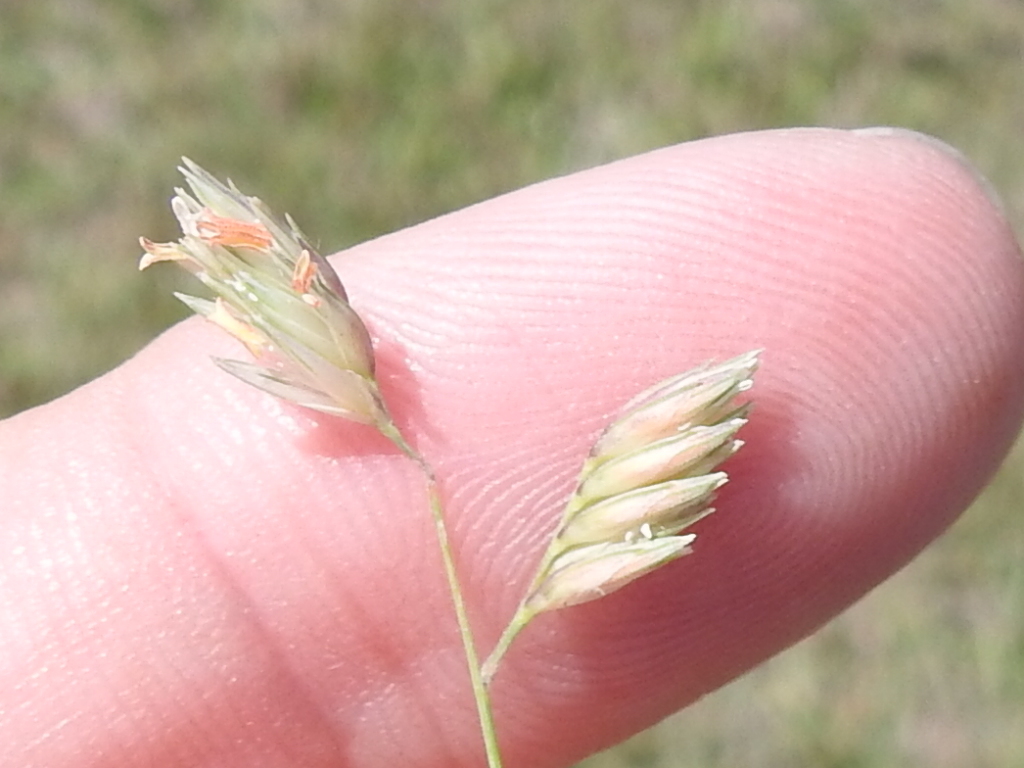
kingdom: Plantae
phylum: Tracheophyta
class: Liliopsida
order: Poales
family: Poaceae
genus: Bouteloua
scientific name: Bouteloua dactyloides
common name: Buffalo grass
